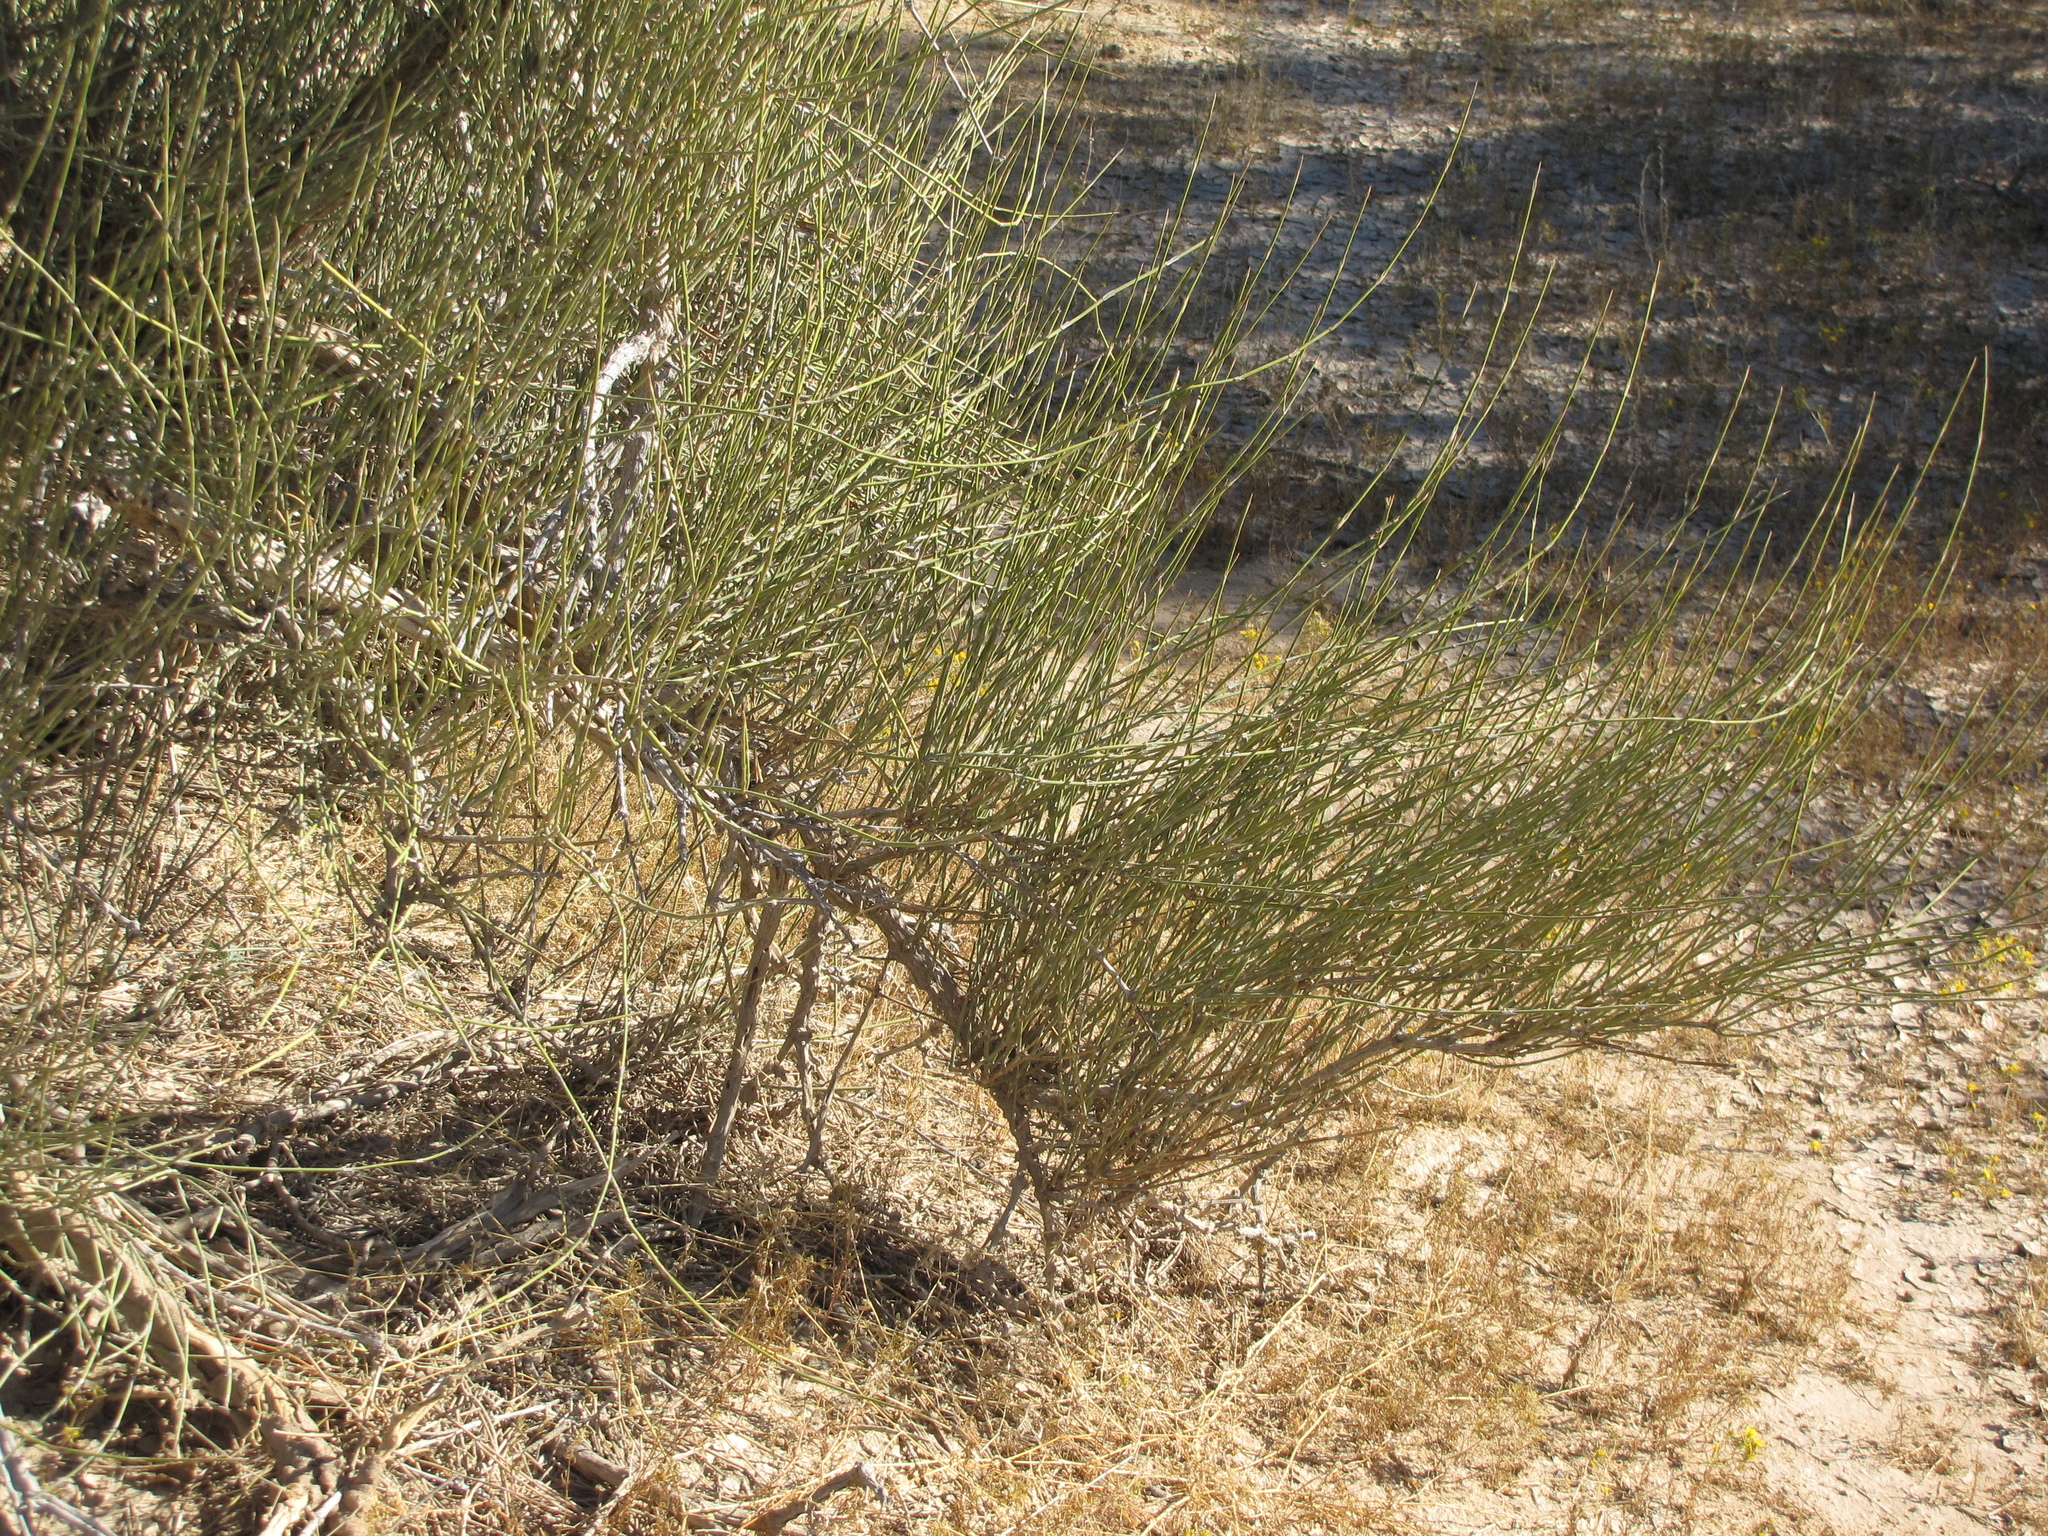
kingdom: Plantae
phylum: Tracheophyta
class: Gnetopsida
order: Ephedrales
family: Ephedraceae
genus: Ephedra
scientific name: Ephedra trifurca
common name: Mexican-tea
